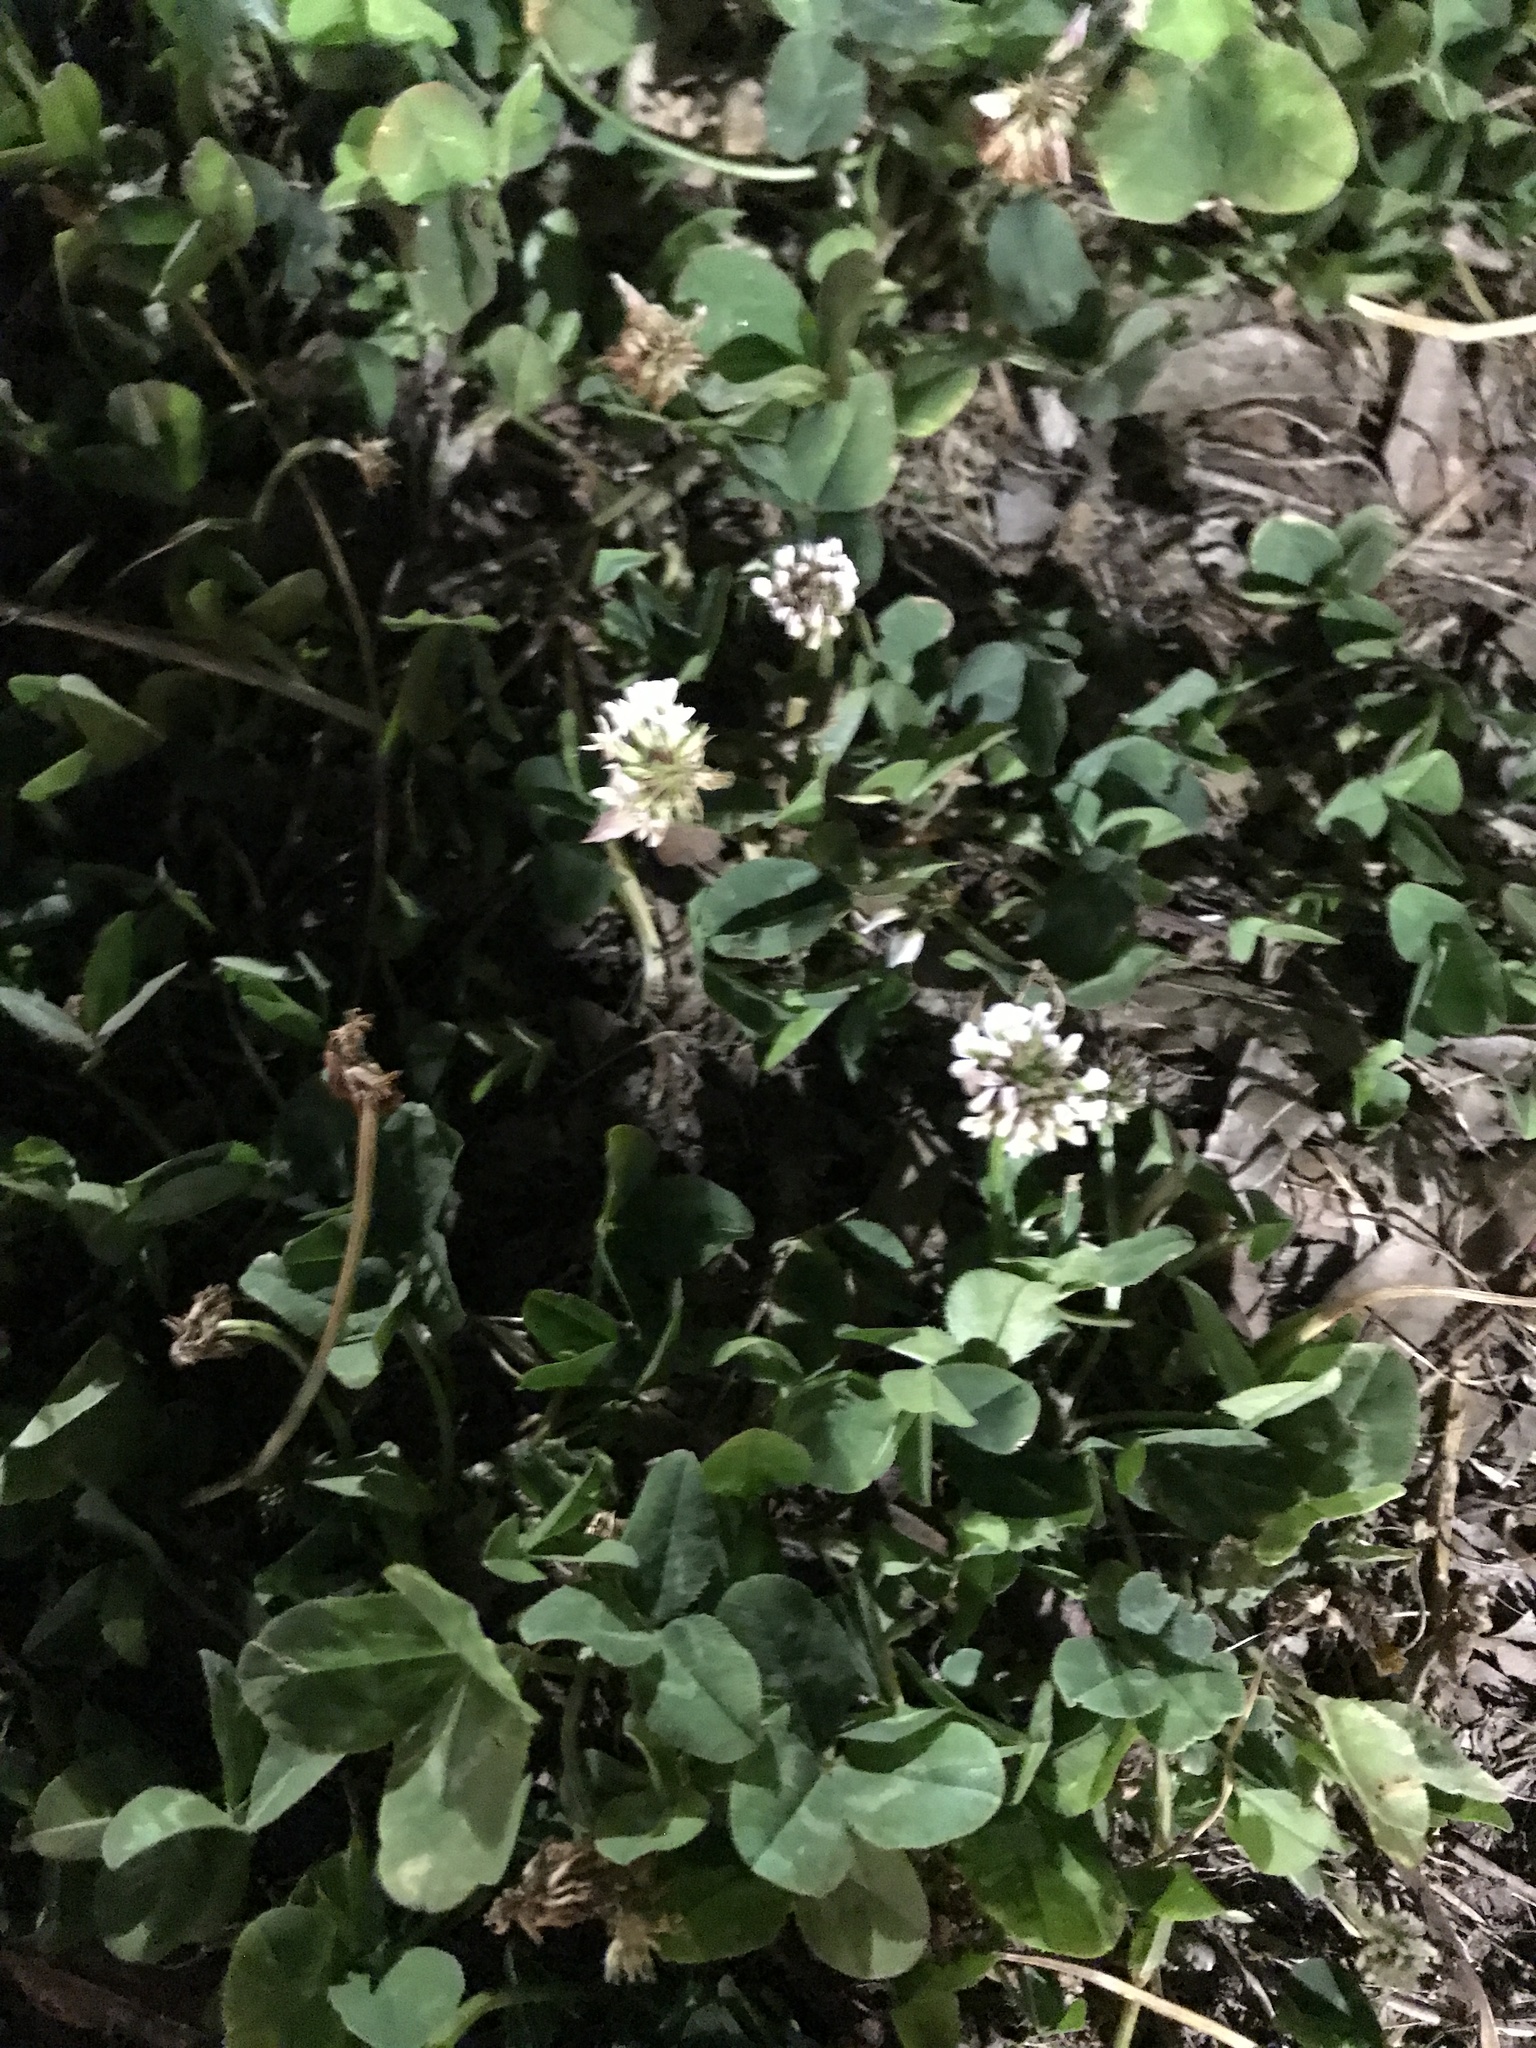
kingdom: Plantae
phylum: Tracheophyta
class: Magnoliopsida
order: Fabales
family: Fabaceae
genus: Trifolium
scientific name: Trifolium repens
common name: White clover
